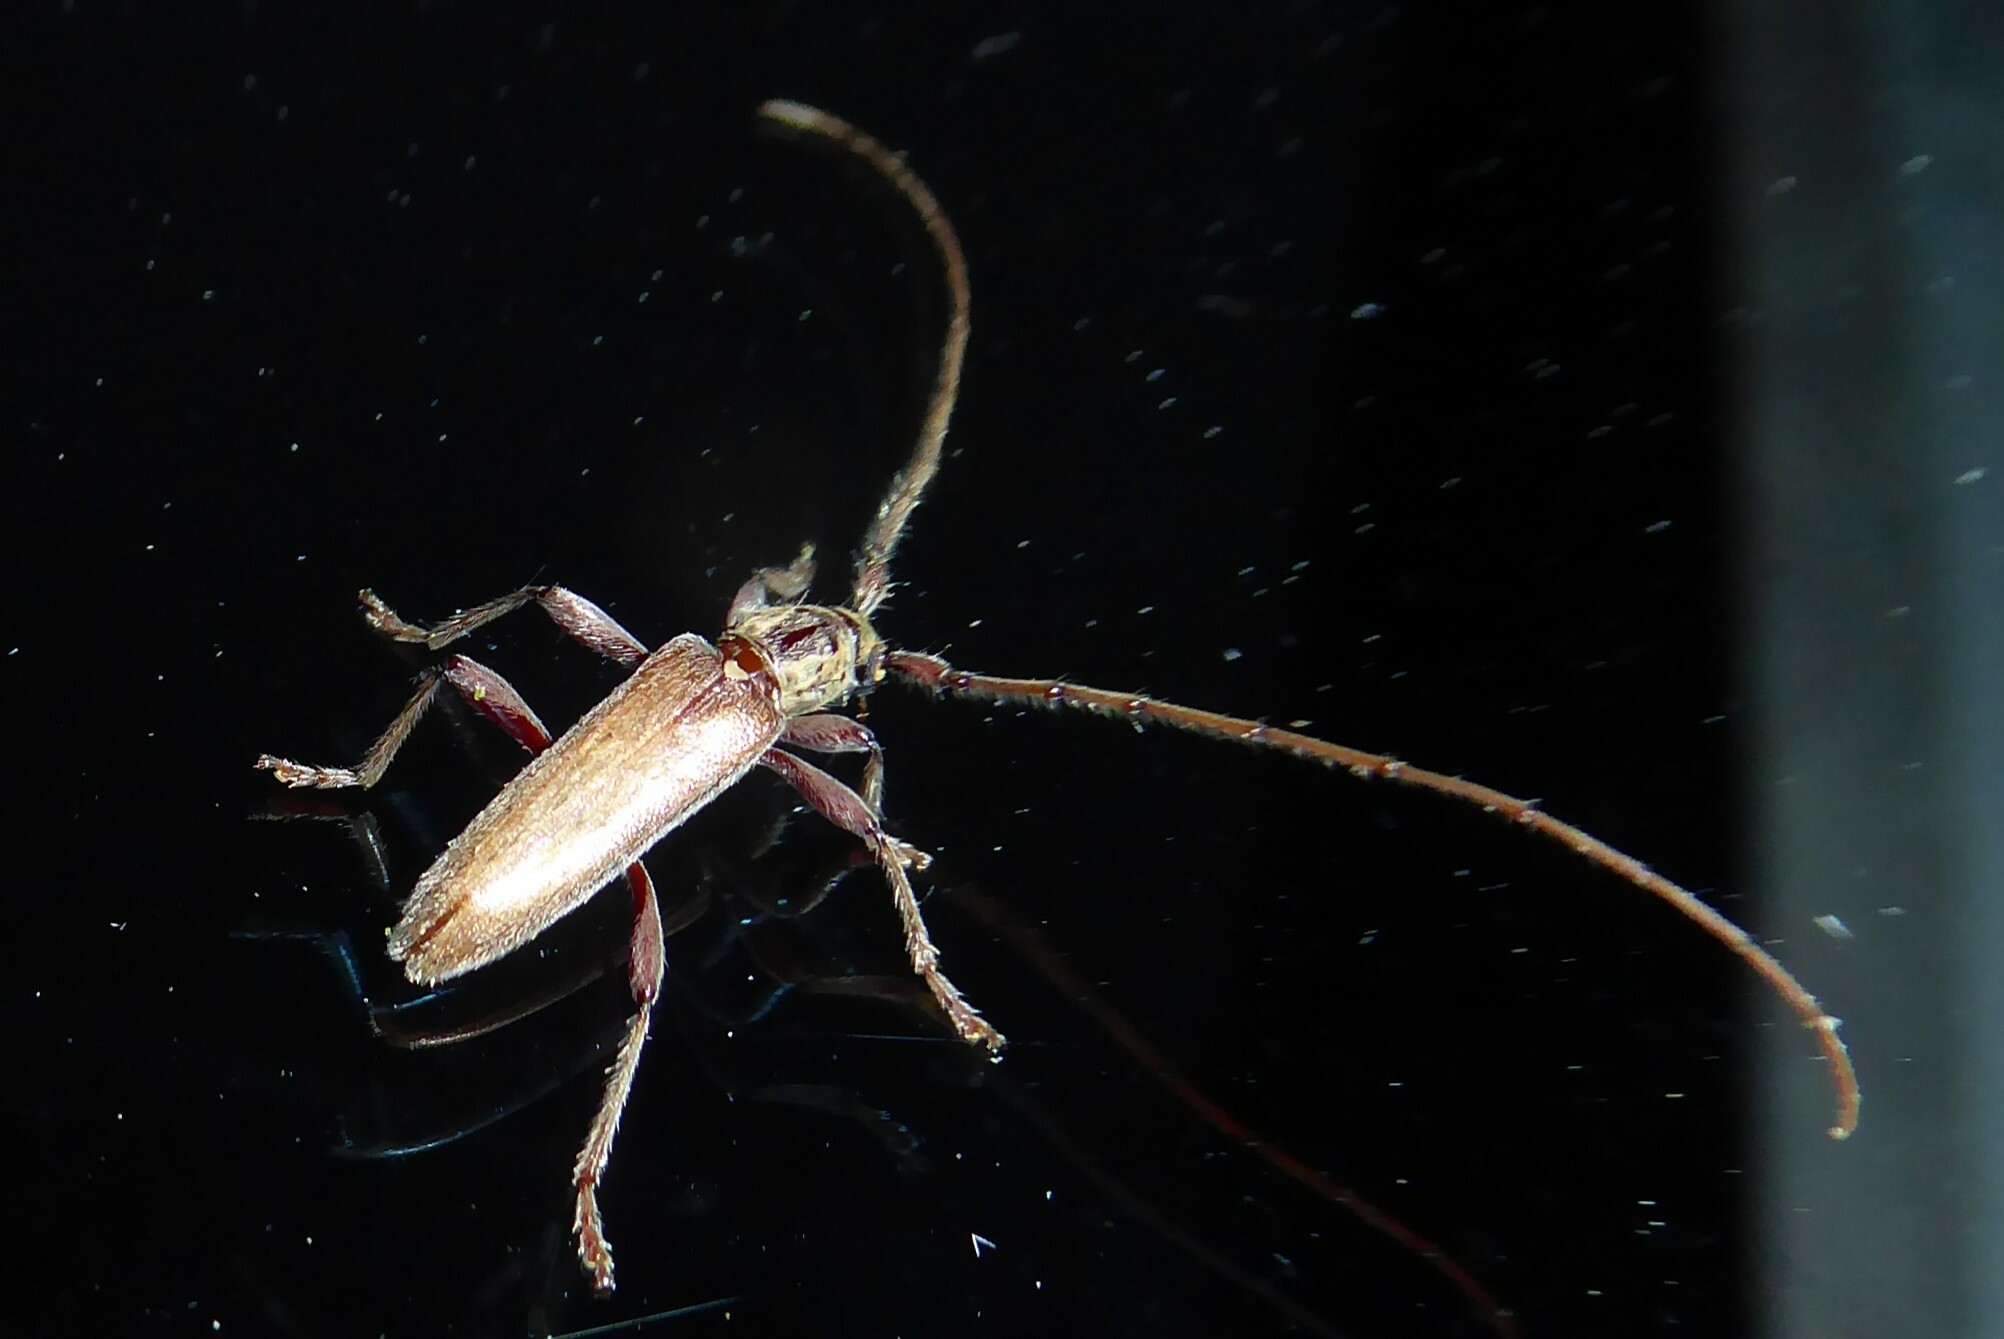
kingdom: Animalia
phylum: Arthropoda
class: Insecta
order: Coleoptera
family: Cerambycidae
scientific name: Cerambycidae
